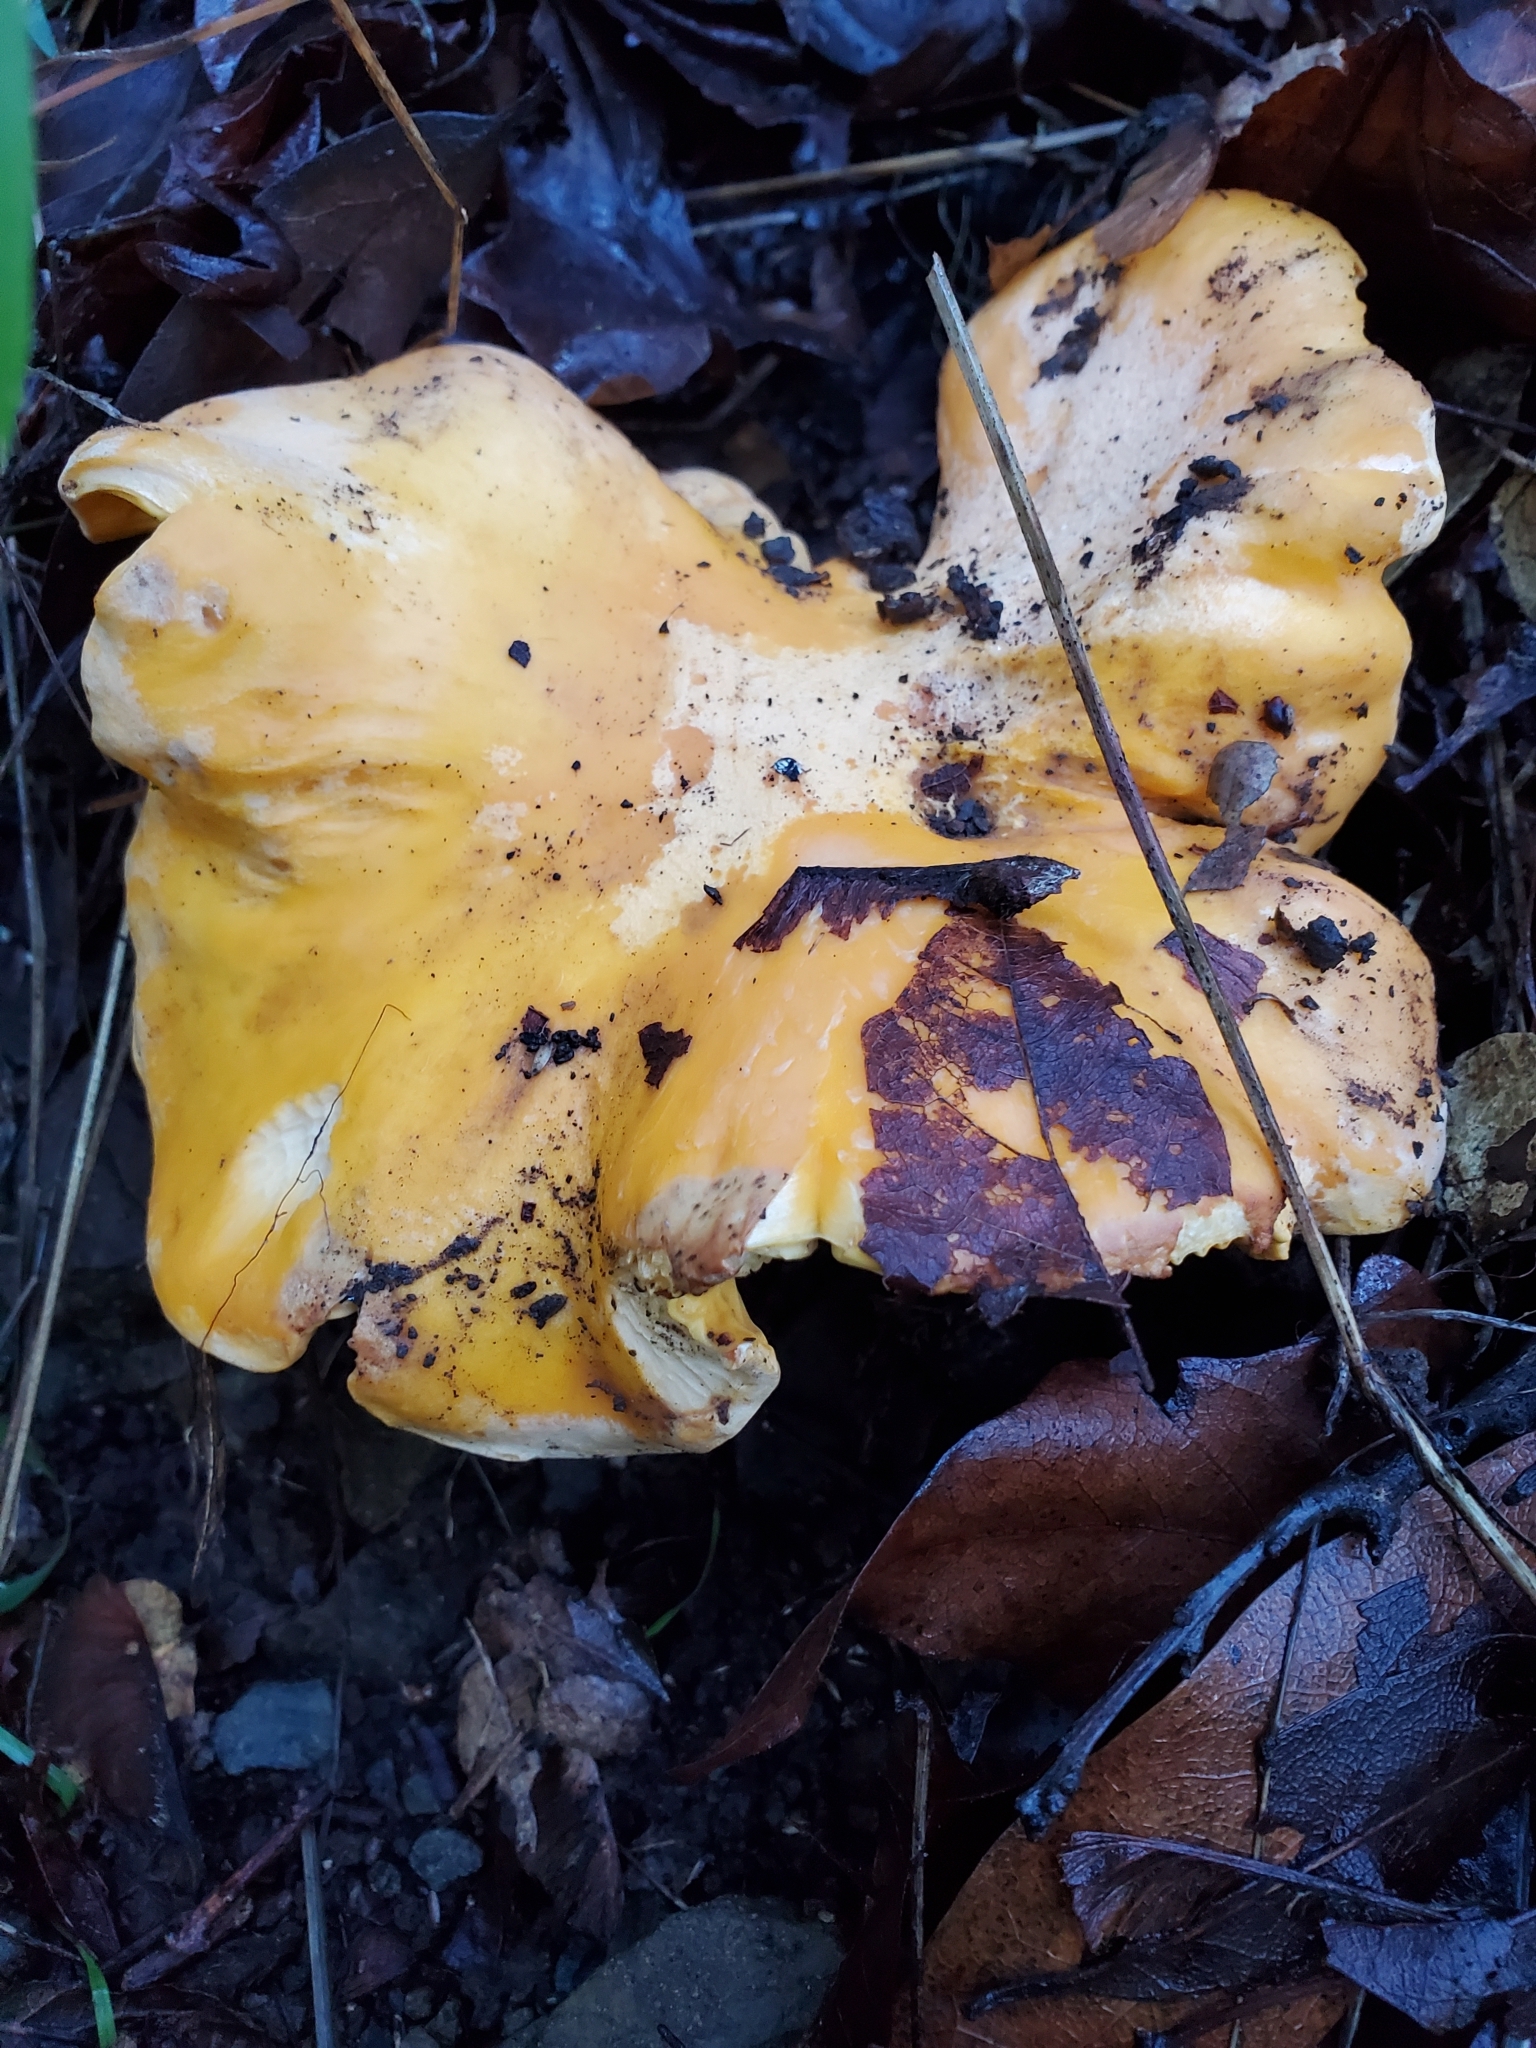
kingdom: Fungi
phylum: Basidiomycota
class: Agaricomycetes
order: Cantharellales
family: Hydnaceae
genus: Cantharellus
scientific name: Cantharellus californicus
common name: California golden chanterelle
